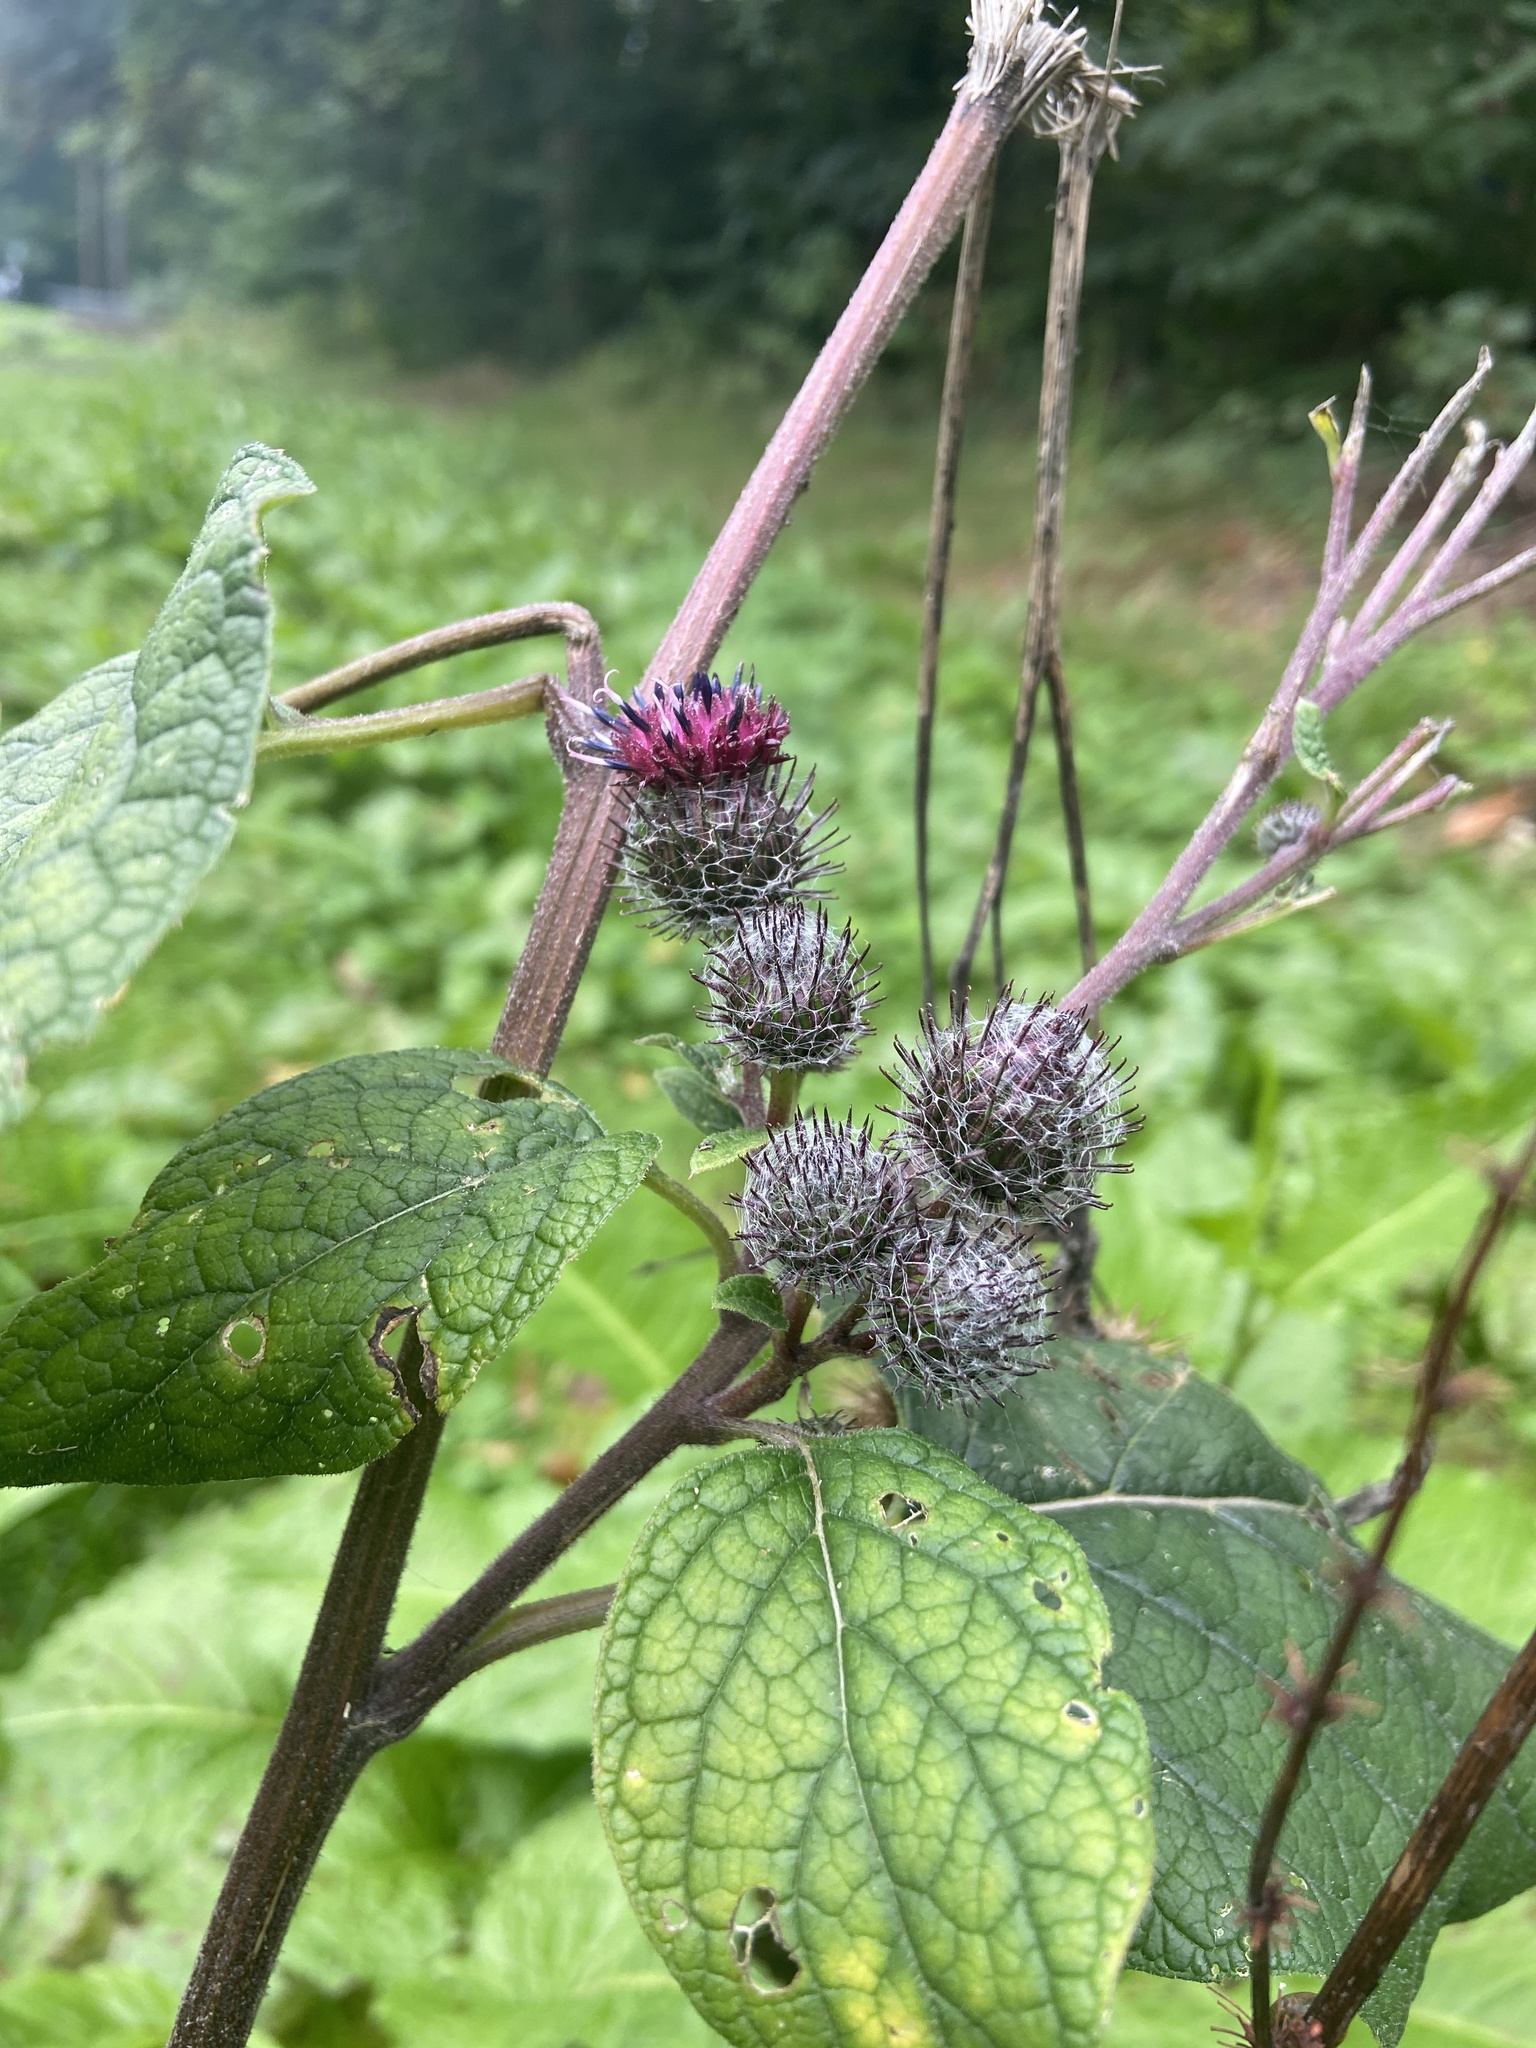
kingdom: Plantae
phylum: Tracheophyta
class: Magnoliopsida
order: Asterales
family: Asteraceae
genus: Arctium
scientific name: Arctium tomentosum
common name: Woolly burdock
